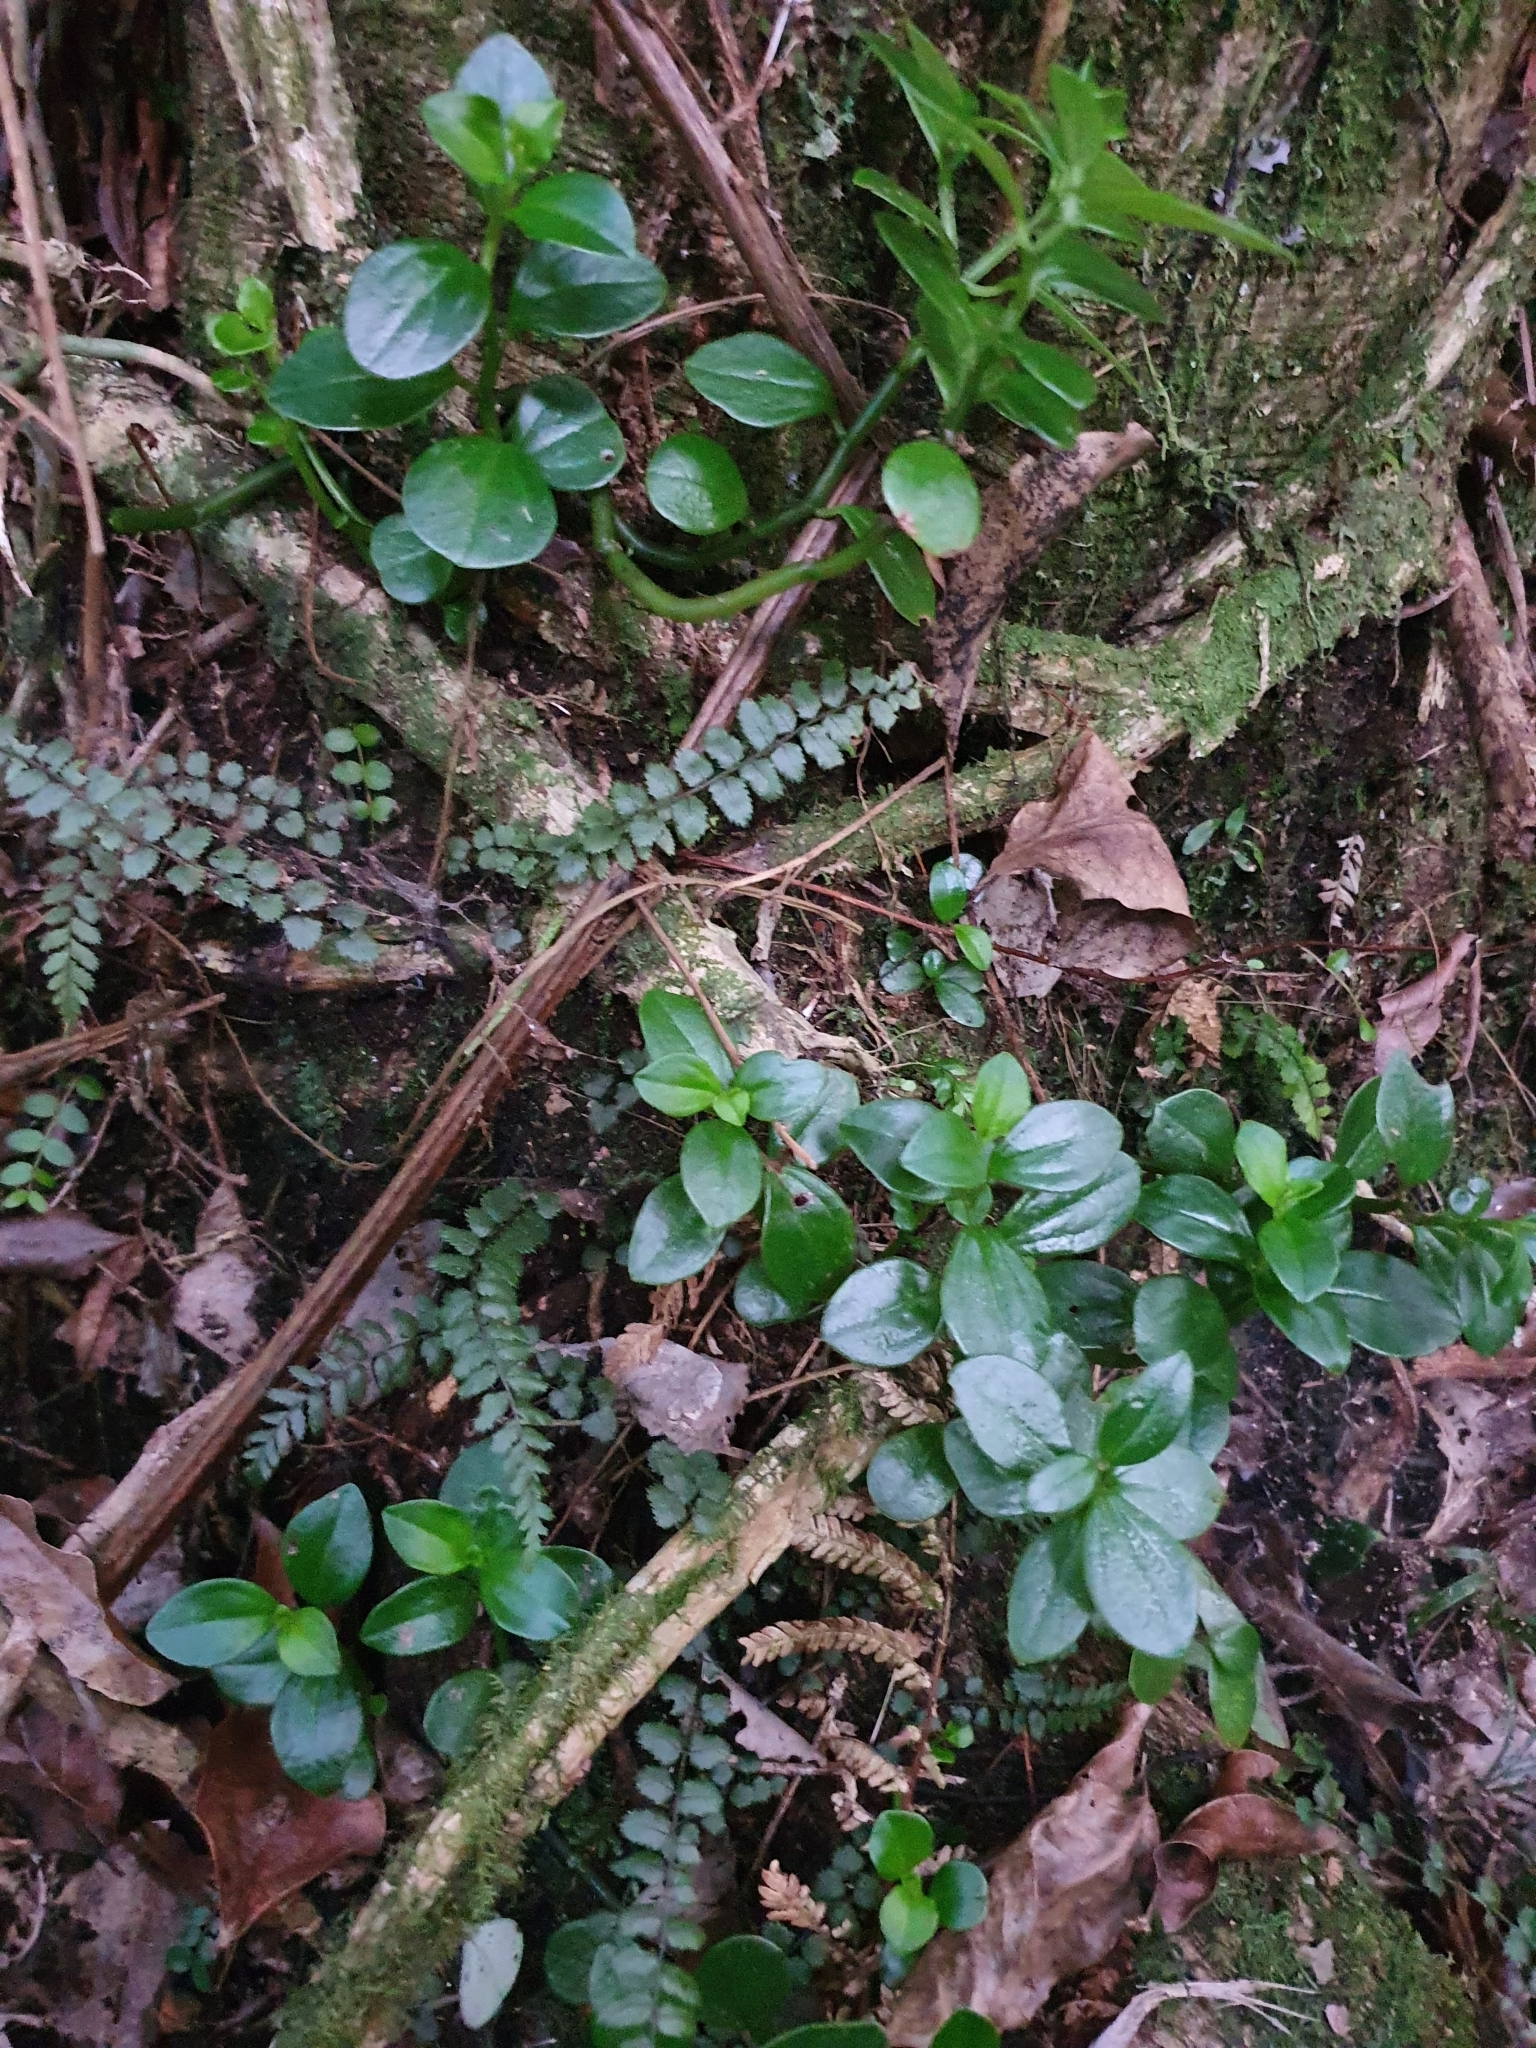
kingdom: Plantae
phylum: Tracheophyta
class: Magnoliopsida
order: Piperales
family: Piperaceae
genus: Peperomia
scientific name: Peperomia urvilleana
